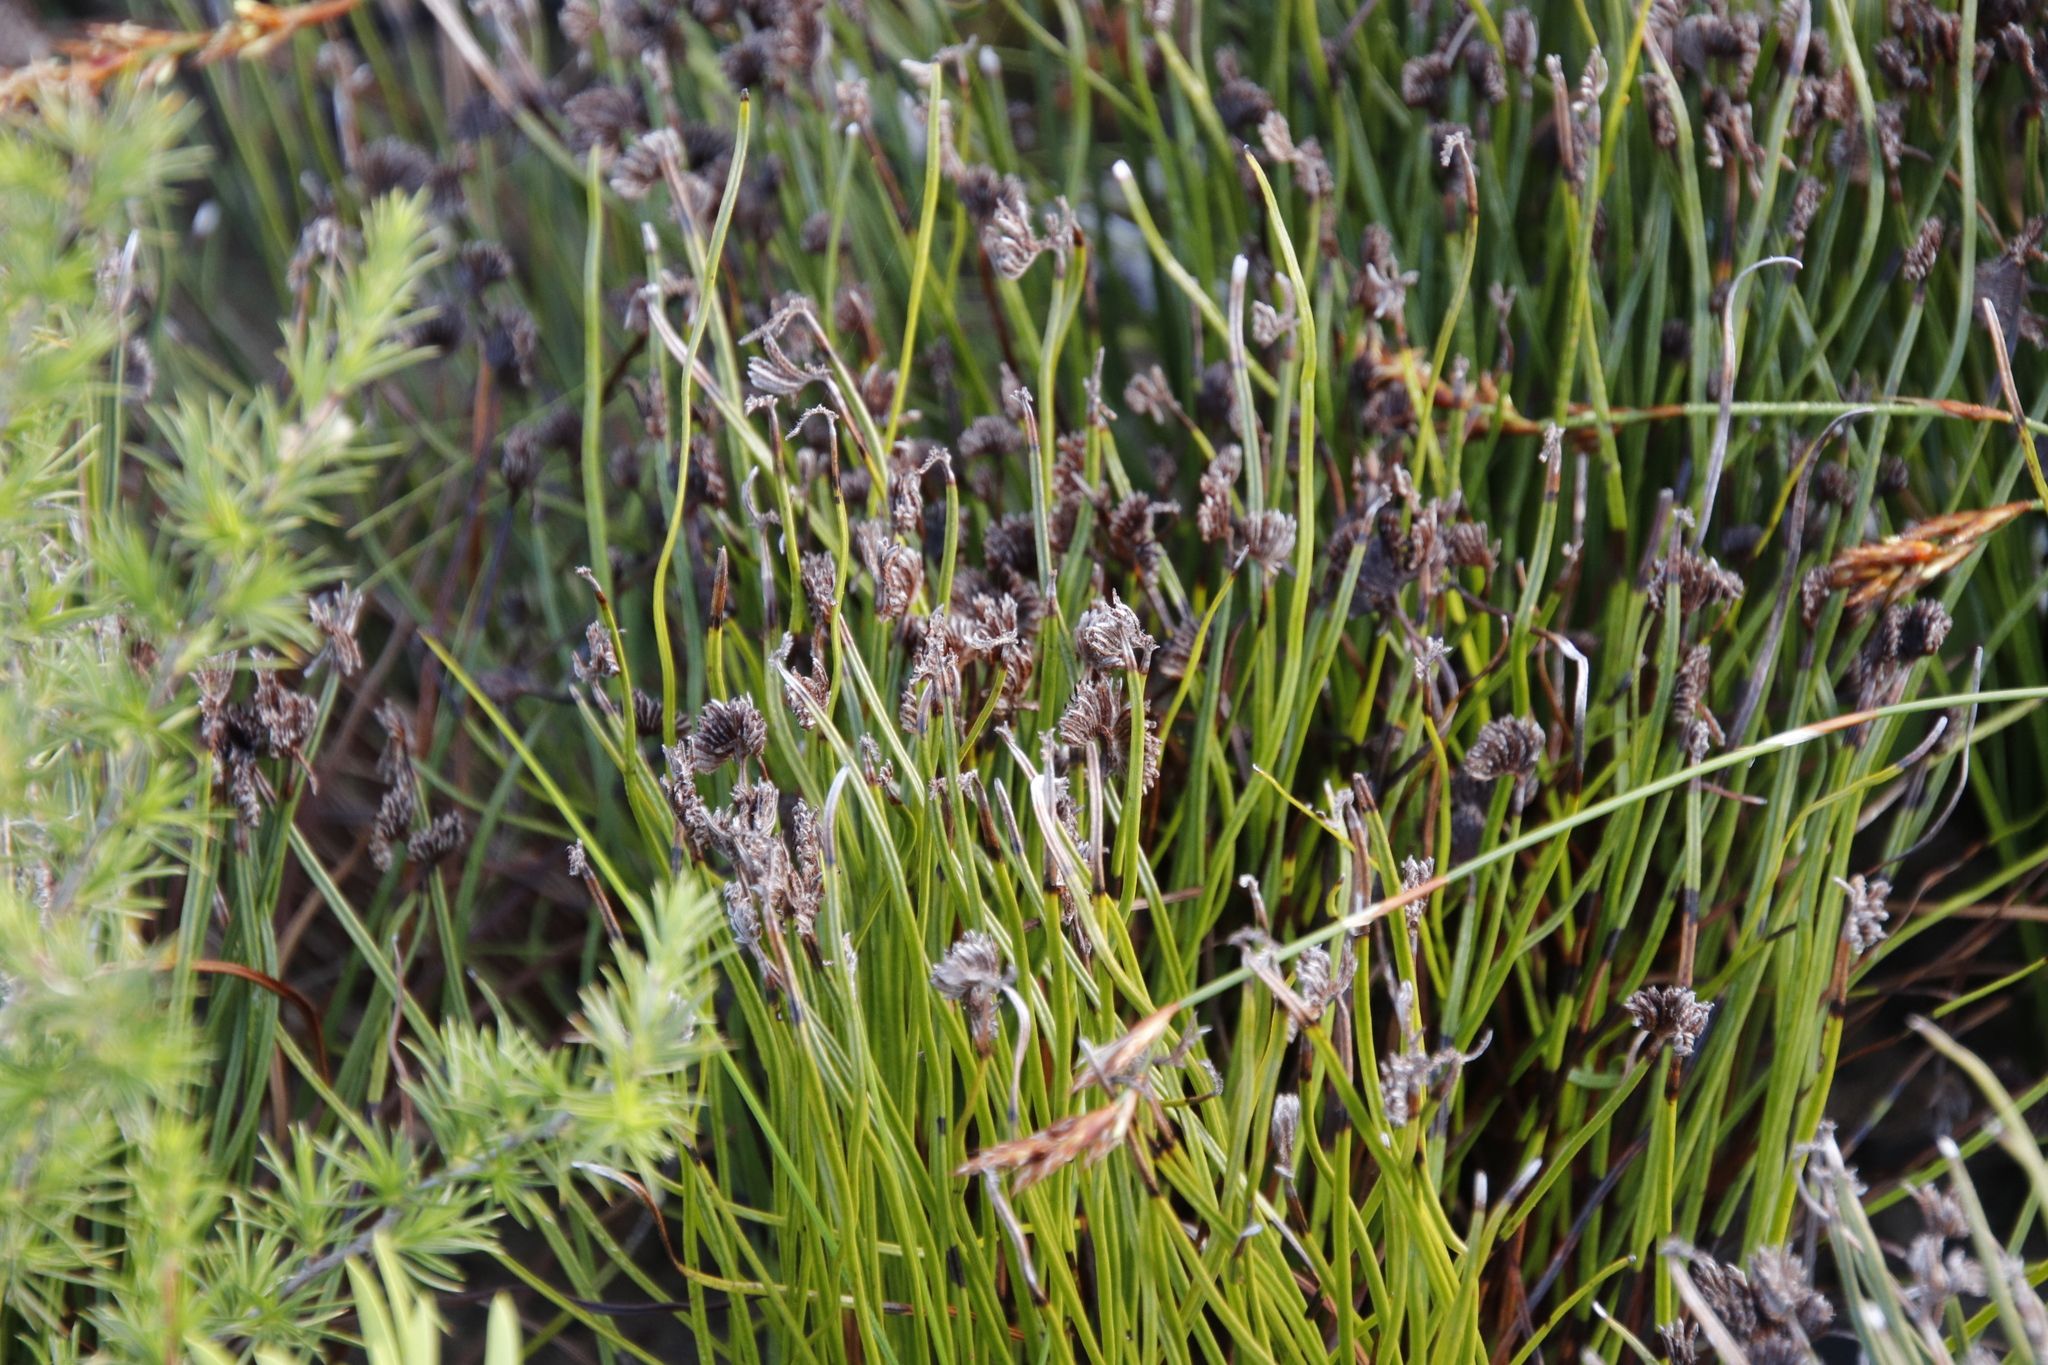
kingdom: Plantae
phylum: Tracheophyta
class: Polypodiopsida
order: Schizaeales
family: Schizaeaceae
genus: Schizaea
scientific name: Schizaea pectinata
